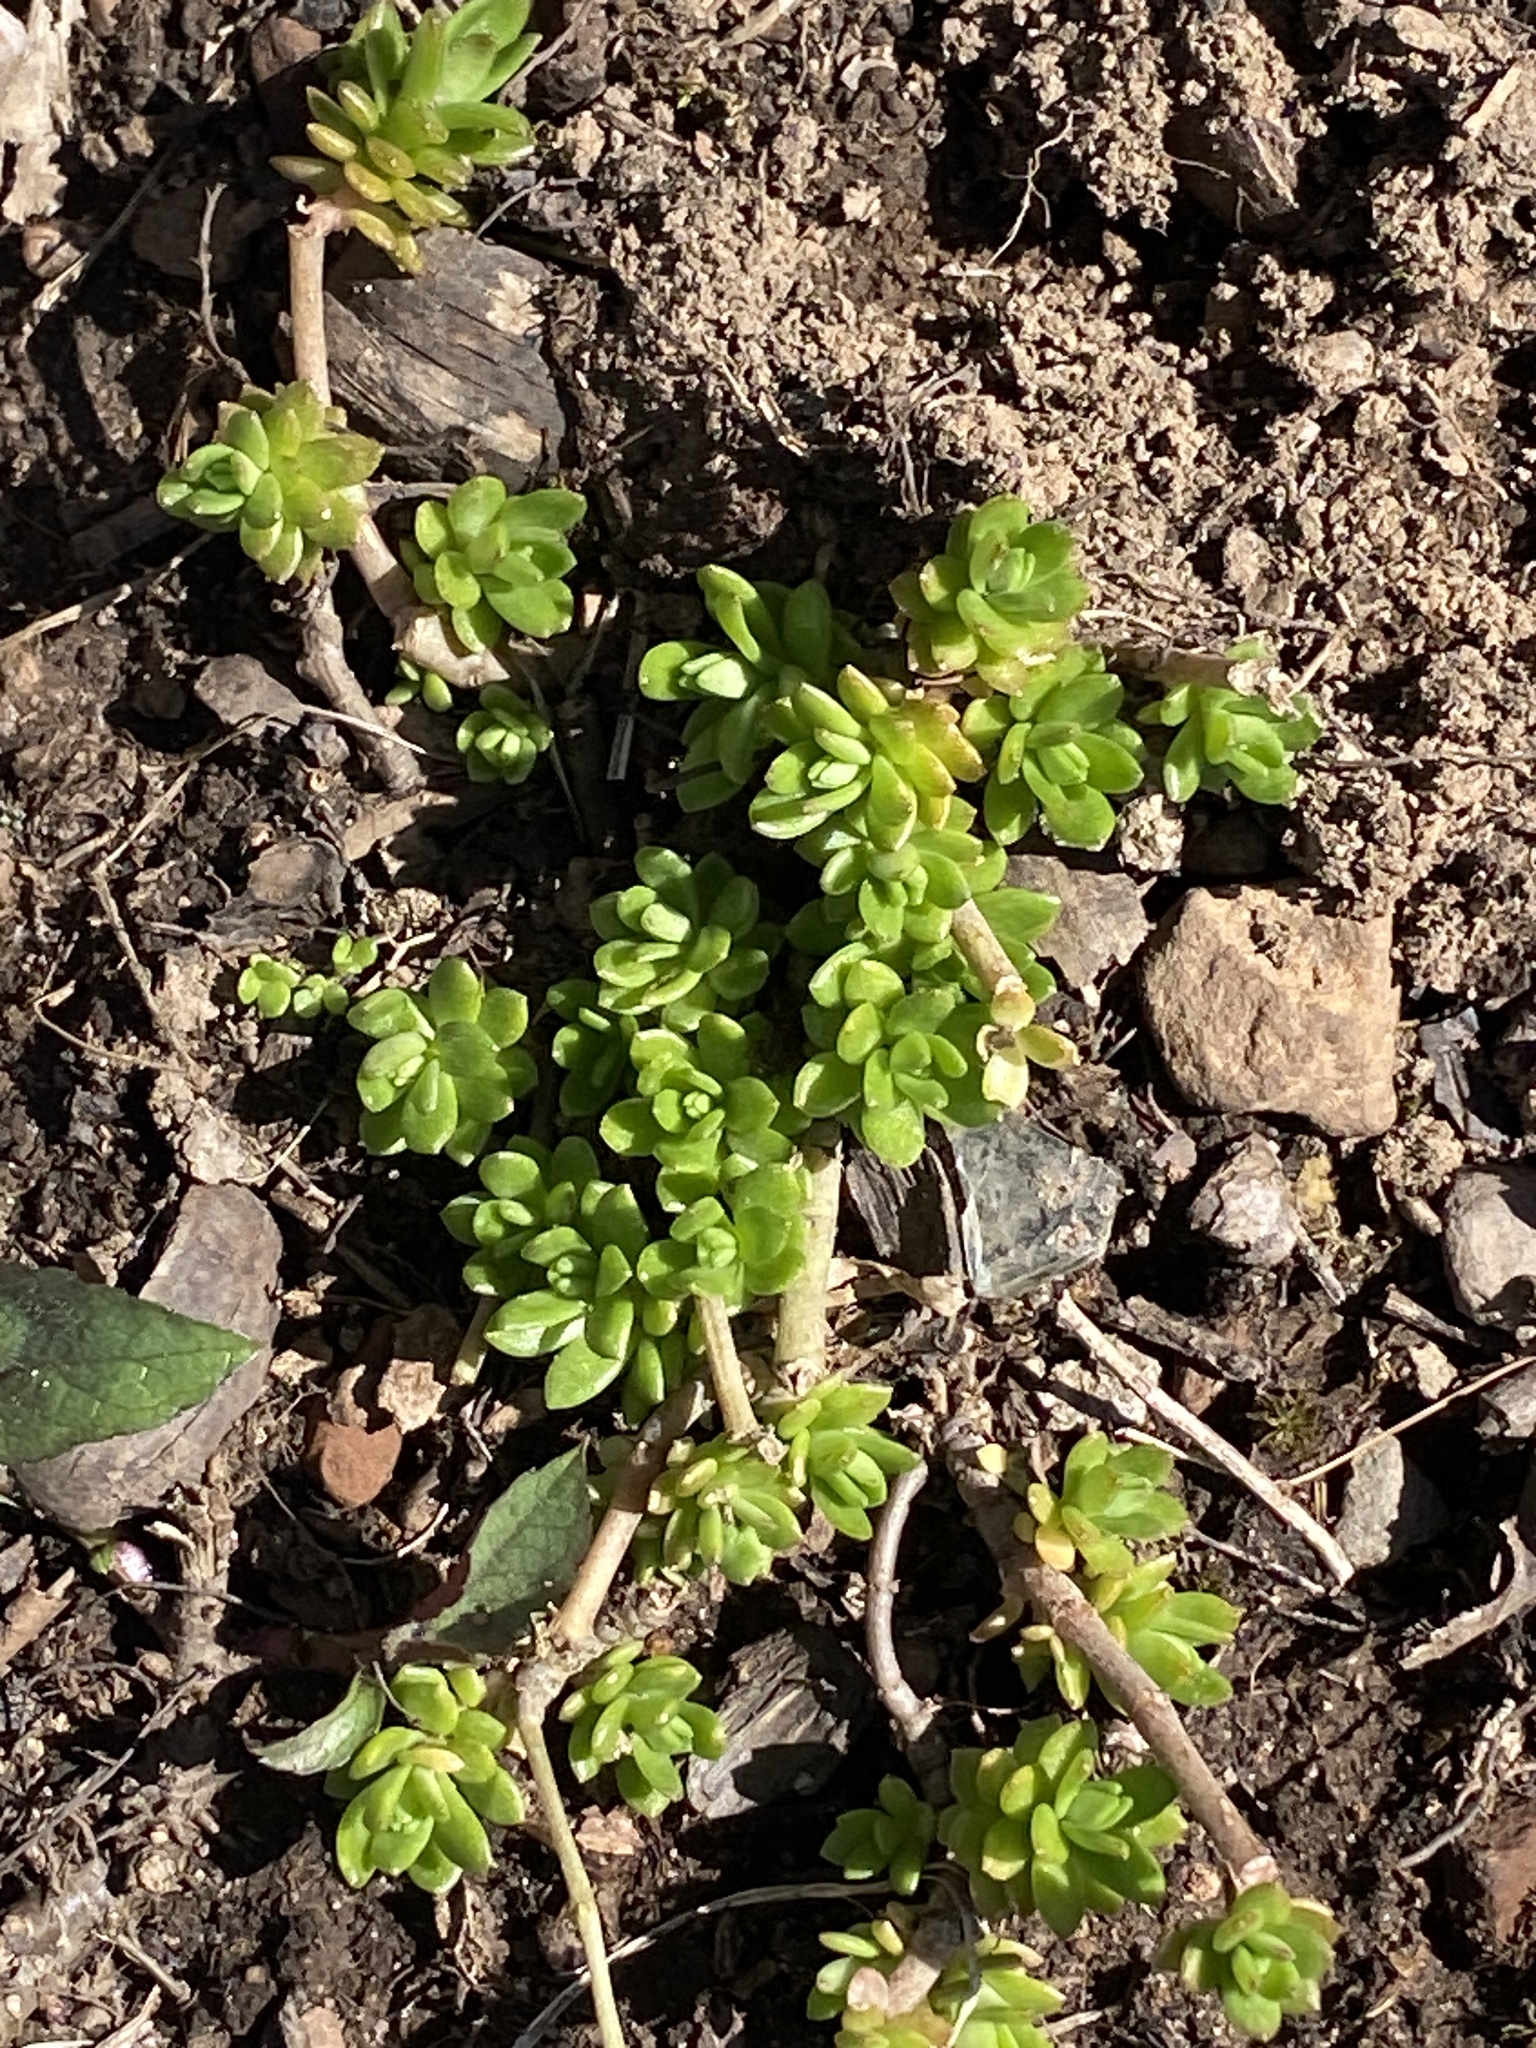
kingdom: Plantae
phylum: Tracheophyta
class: Magnoliopsida
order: Saxifragales
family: Crassulaceae
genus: Sedum
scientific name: Sedum sarmentosum
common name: Stringy stonecrop
